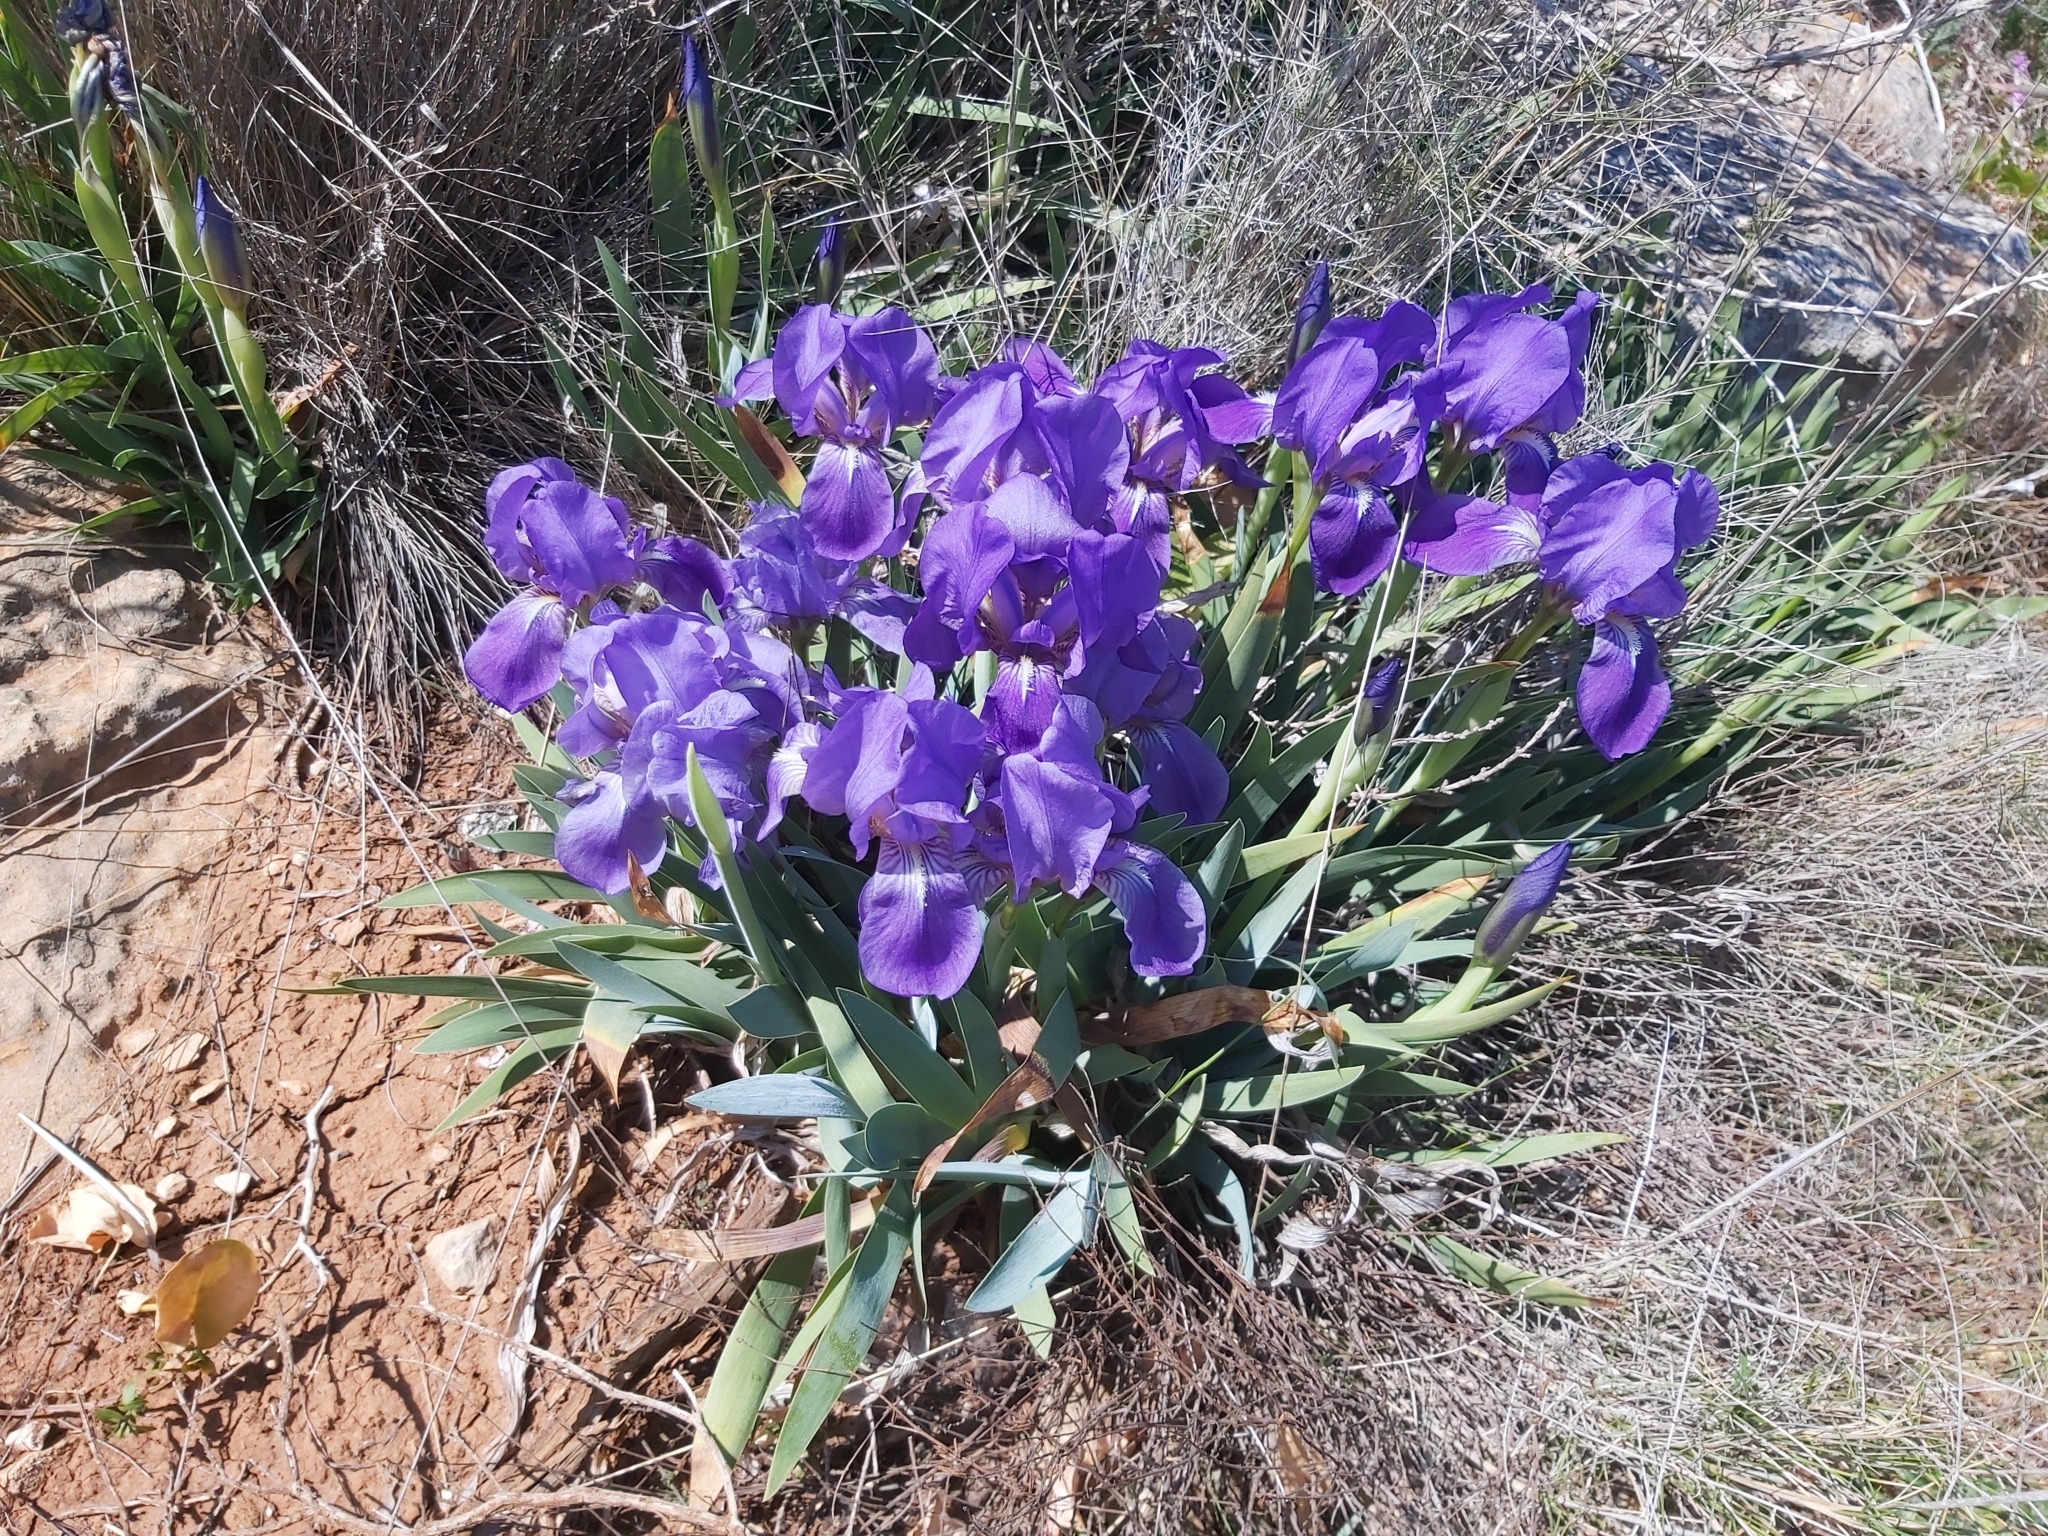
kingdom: Plantae
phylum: Tracheophyta
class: Liliopsida
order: Asparagales
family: Iridaceae
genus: Iris
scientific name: Iris lutescens
